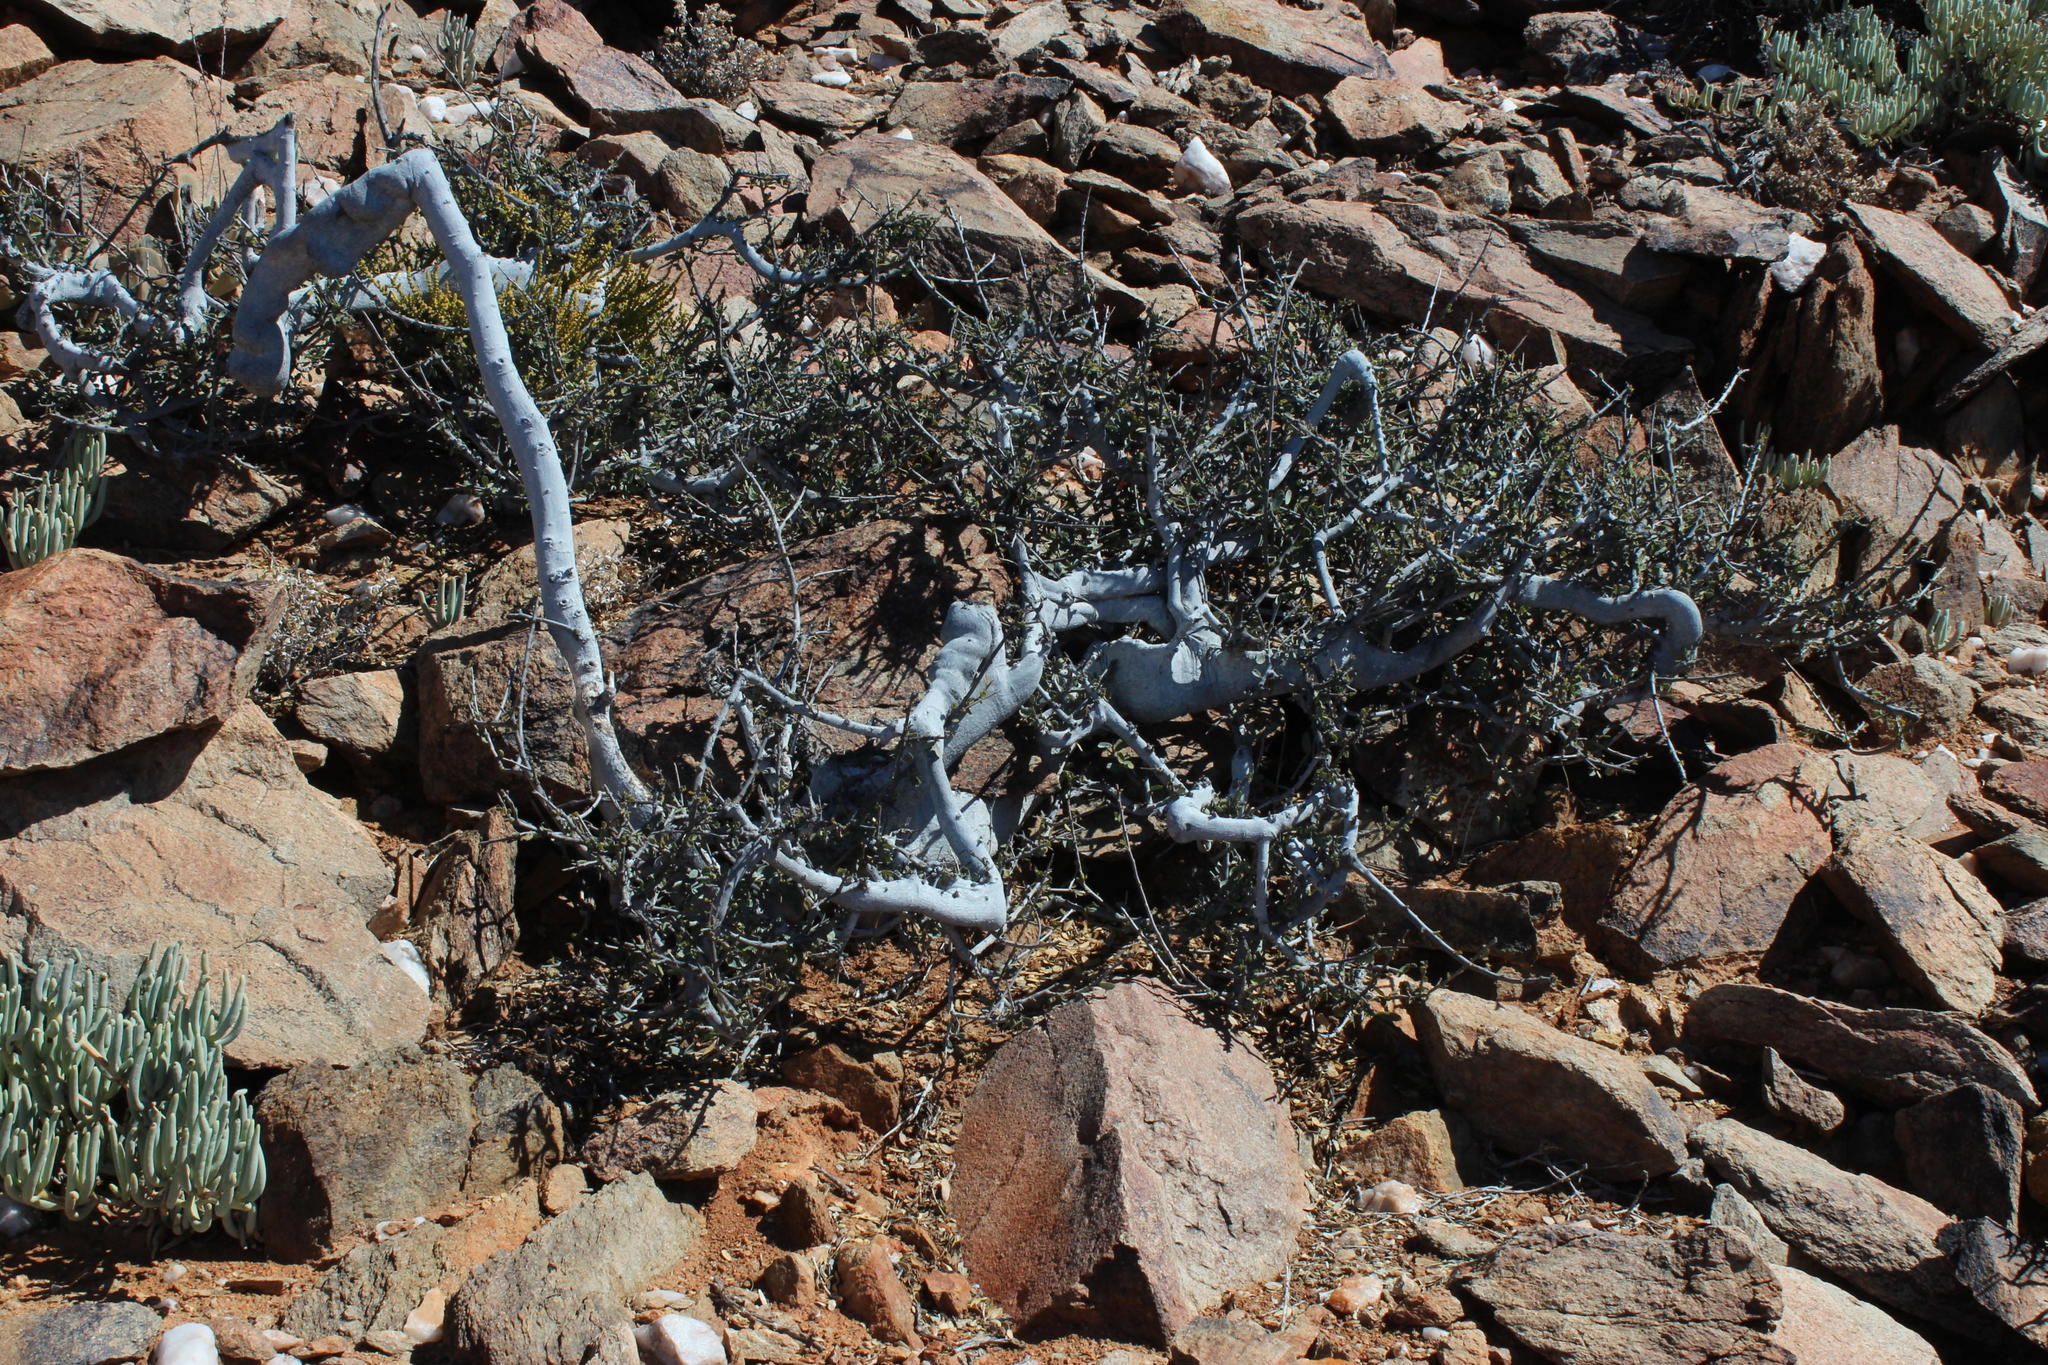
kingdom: Plantae
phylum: Tracheophyta
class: Magnoliopsida
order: Brassicales
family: Capparaceae
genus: Boscia
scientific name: Boscia albitrunca
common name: Caper bush
